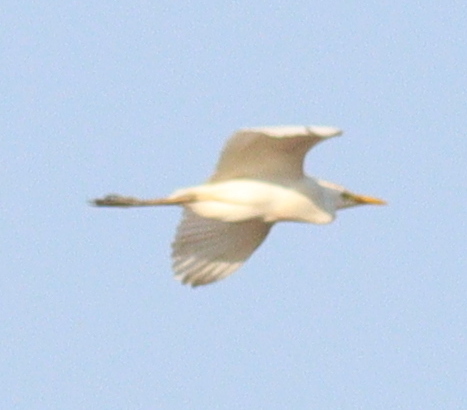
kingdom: Animalia
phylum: Chordata
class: Aves
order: Pelecaniformes
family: Ardeidae
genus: Bubulcus
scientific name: Bubulcus ibis
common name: Cattle egret
